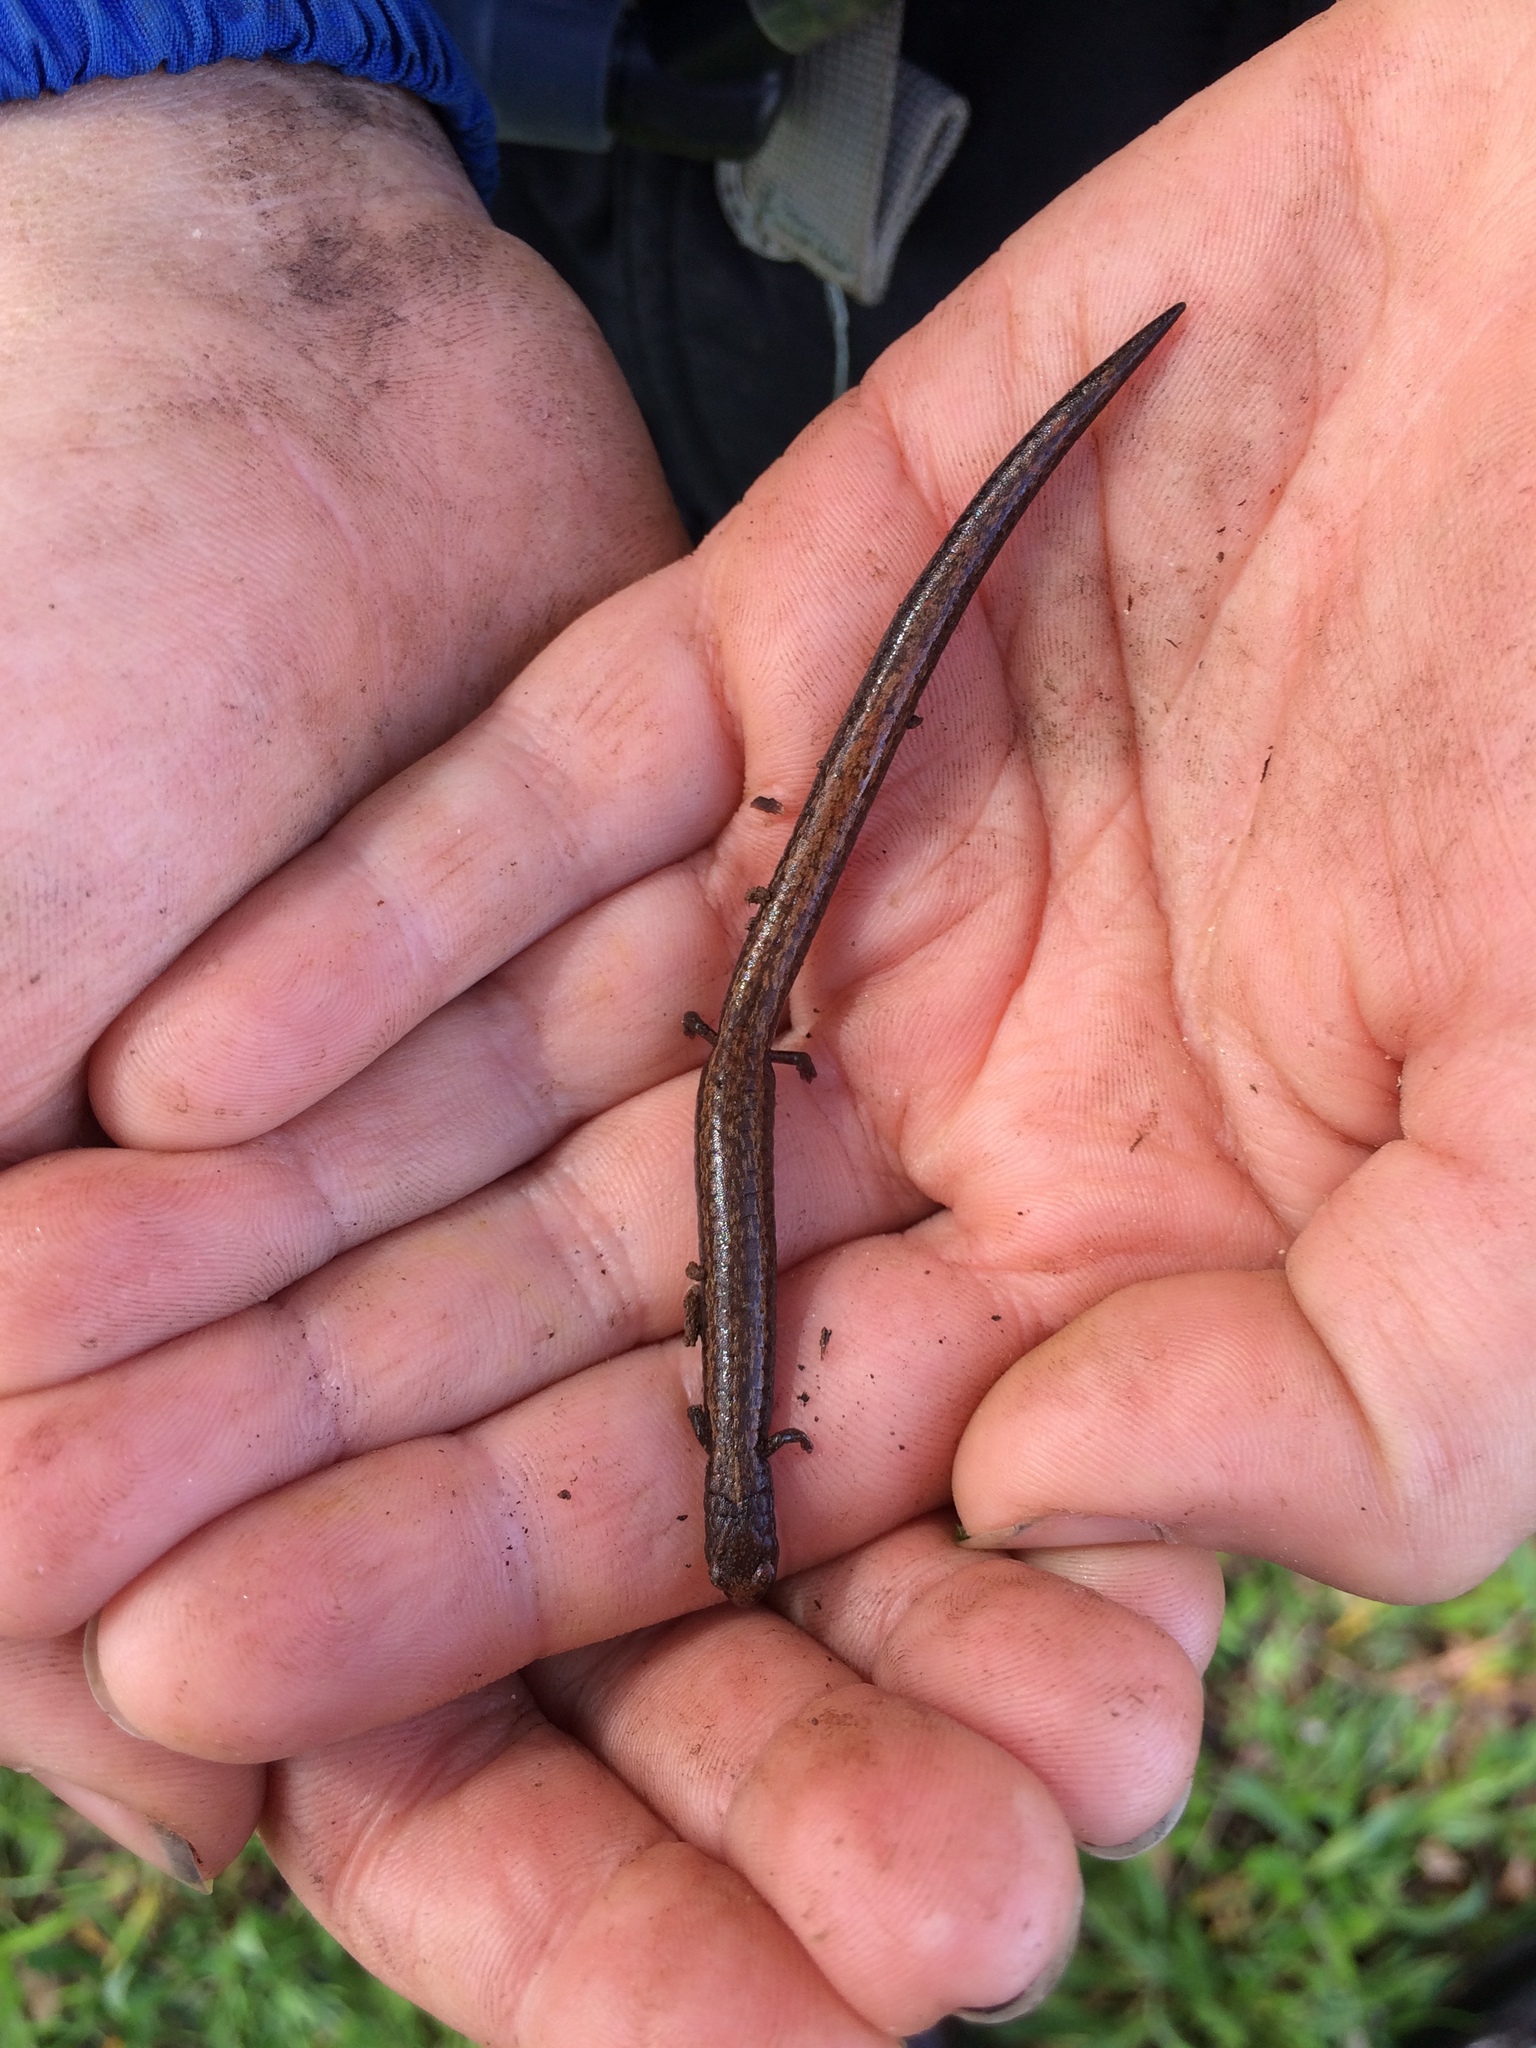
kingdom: Animalia
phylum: Chordata
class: Amphibia
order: Caudata
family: Plethodontidae
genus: Batrachoseps
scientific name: Batrachoseps attenuatus
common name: California slender salamander
